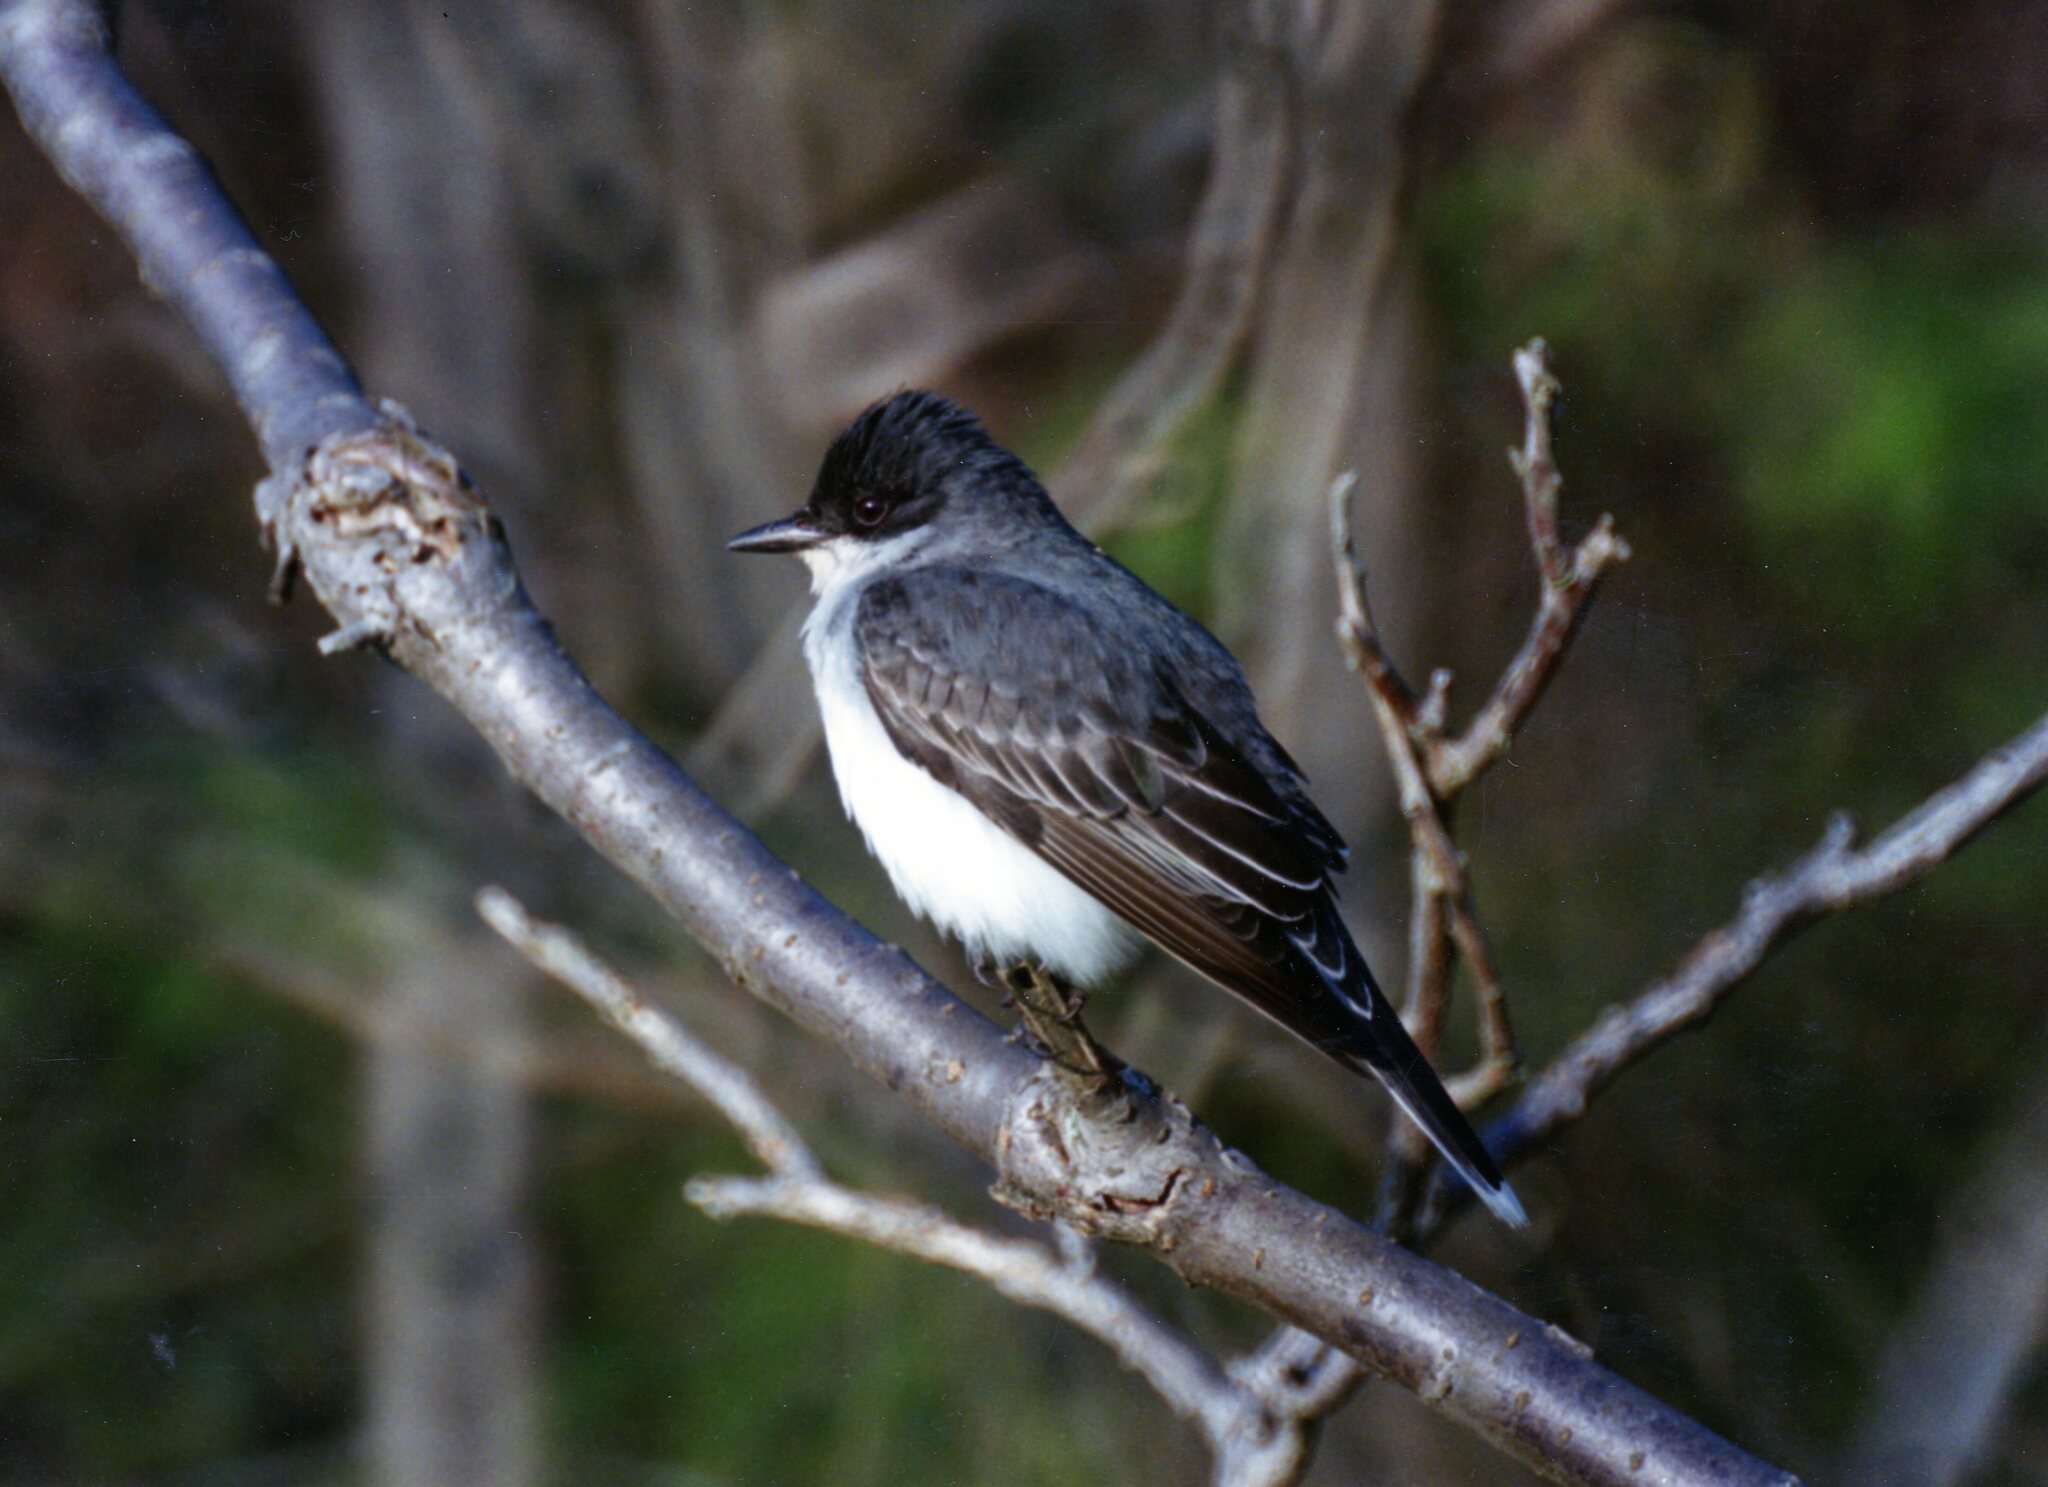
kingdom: Animalia
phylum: Chordata
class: Aves
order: Passeriformes
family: Tyrannidae
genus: Tyrannus
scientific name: Tyrannus tyrannus
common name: Eastern kingbird
